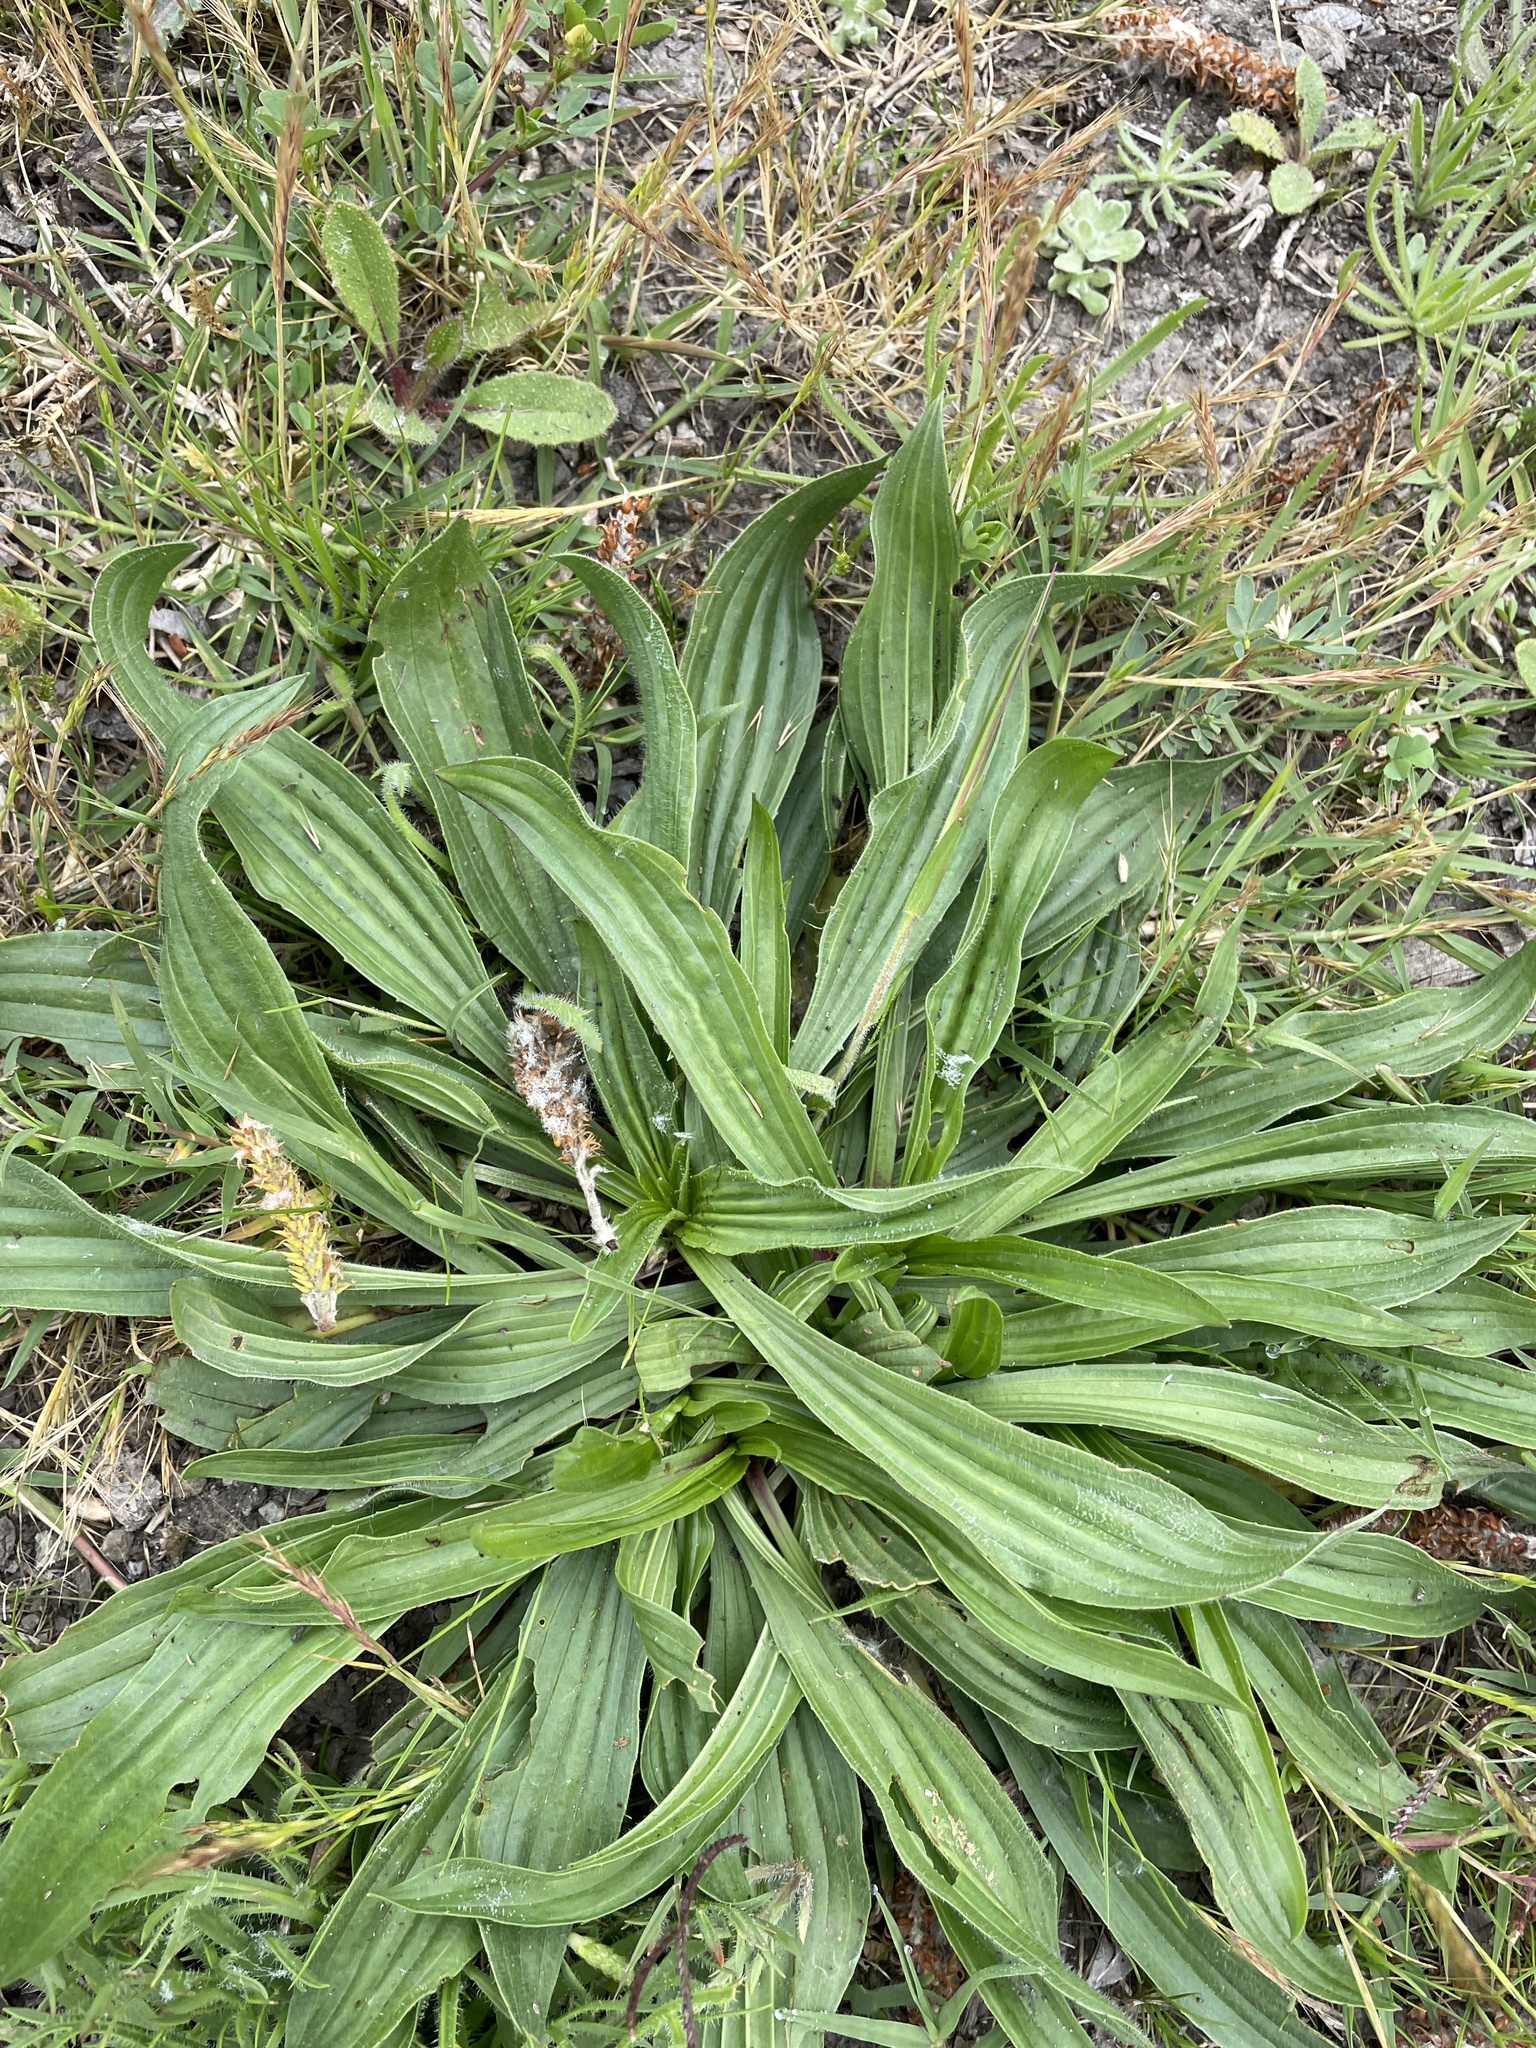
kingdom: Plantae
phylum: Tracheophyta
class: Magnoliopsida
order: Lamiales
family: Plantaginaceae
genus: Plantago
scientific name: Plantago lanceolata
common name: Ribwort plantain
